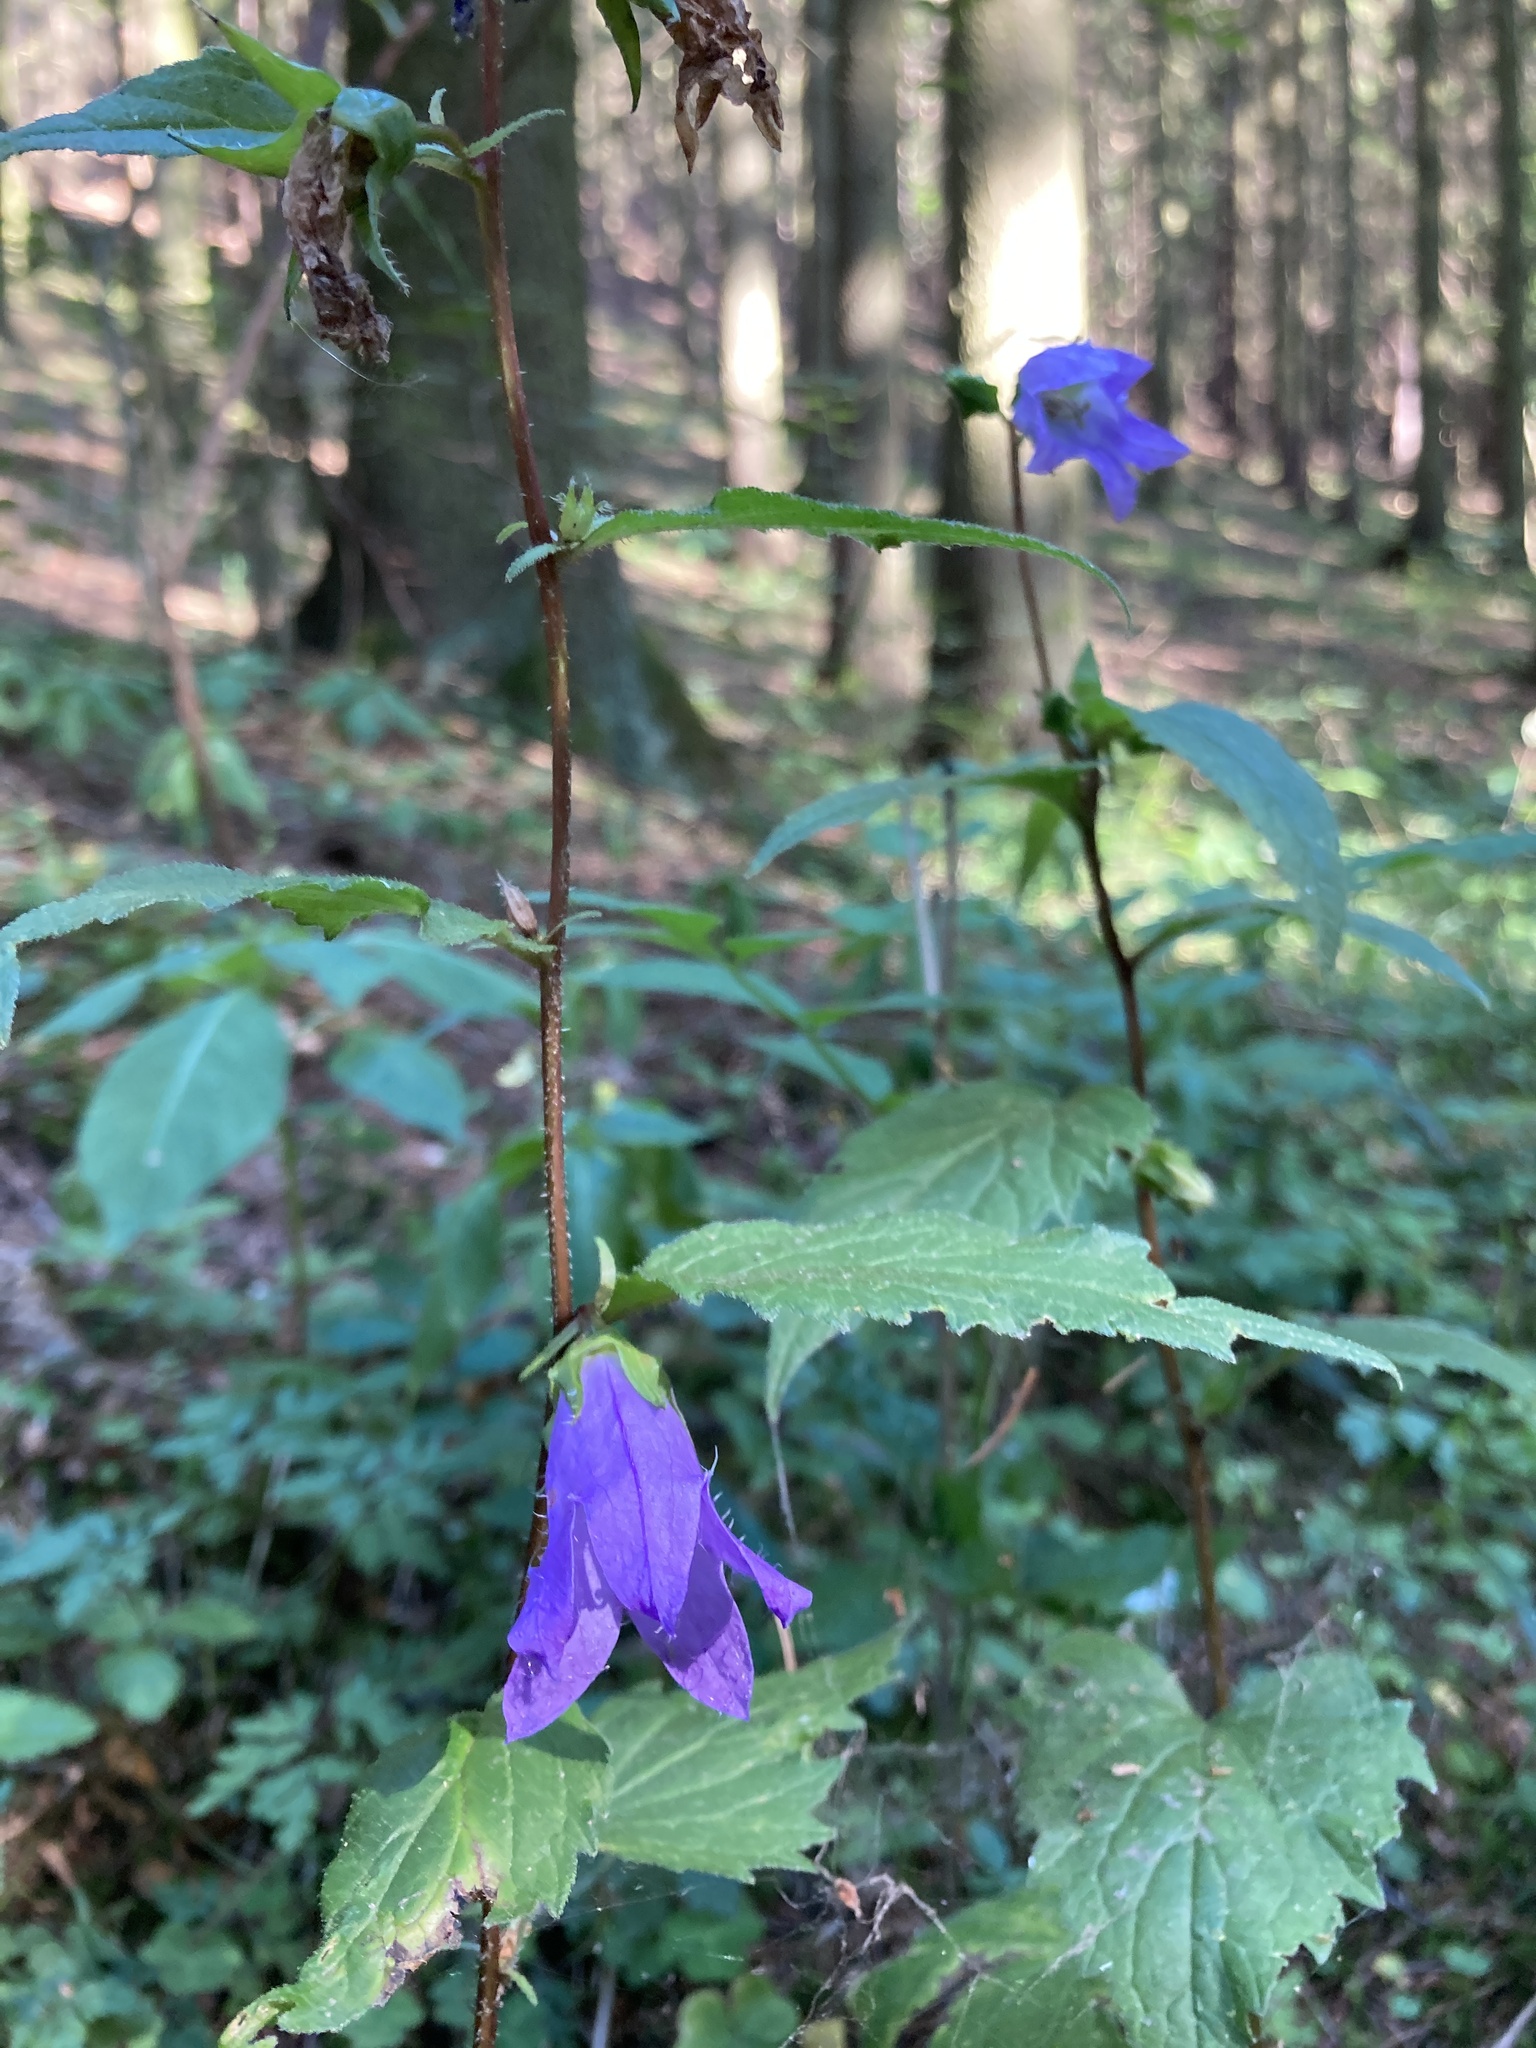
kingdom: Plantae
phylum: Tracheophyta
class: Magnoliopsida
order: Asterales
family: Campanulaceae
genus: Campanula
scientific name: Campanula trachelium
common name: Nettle-leaved bellflower
